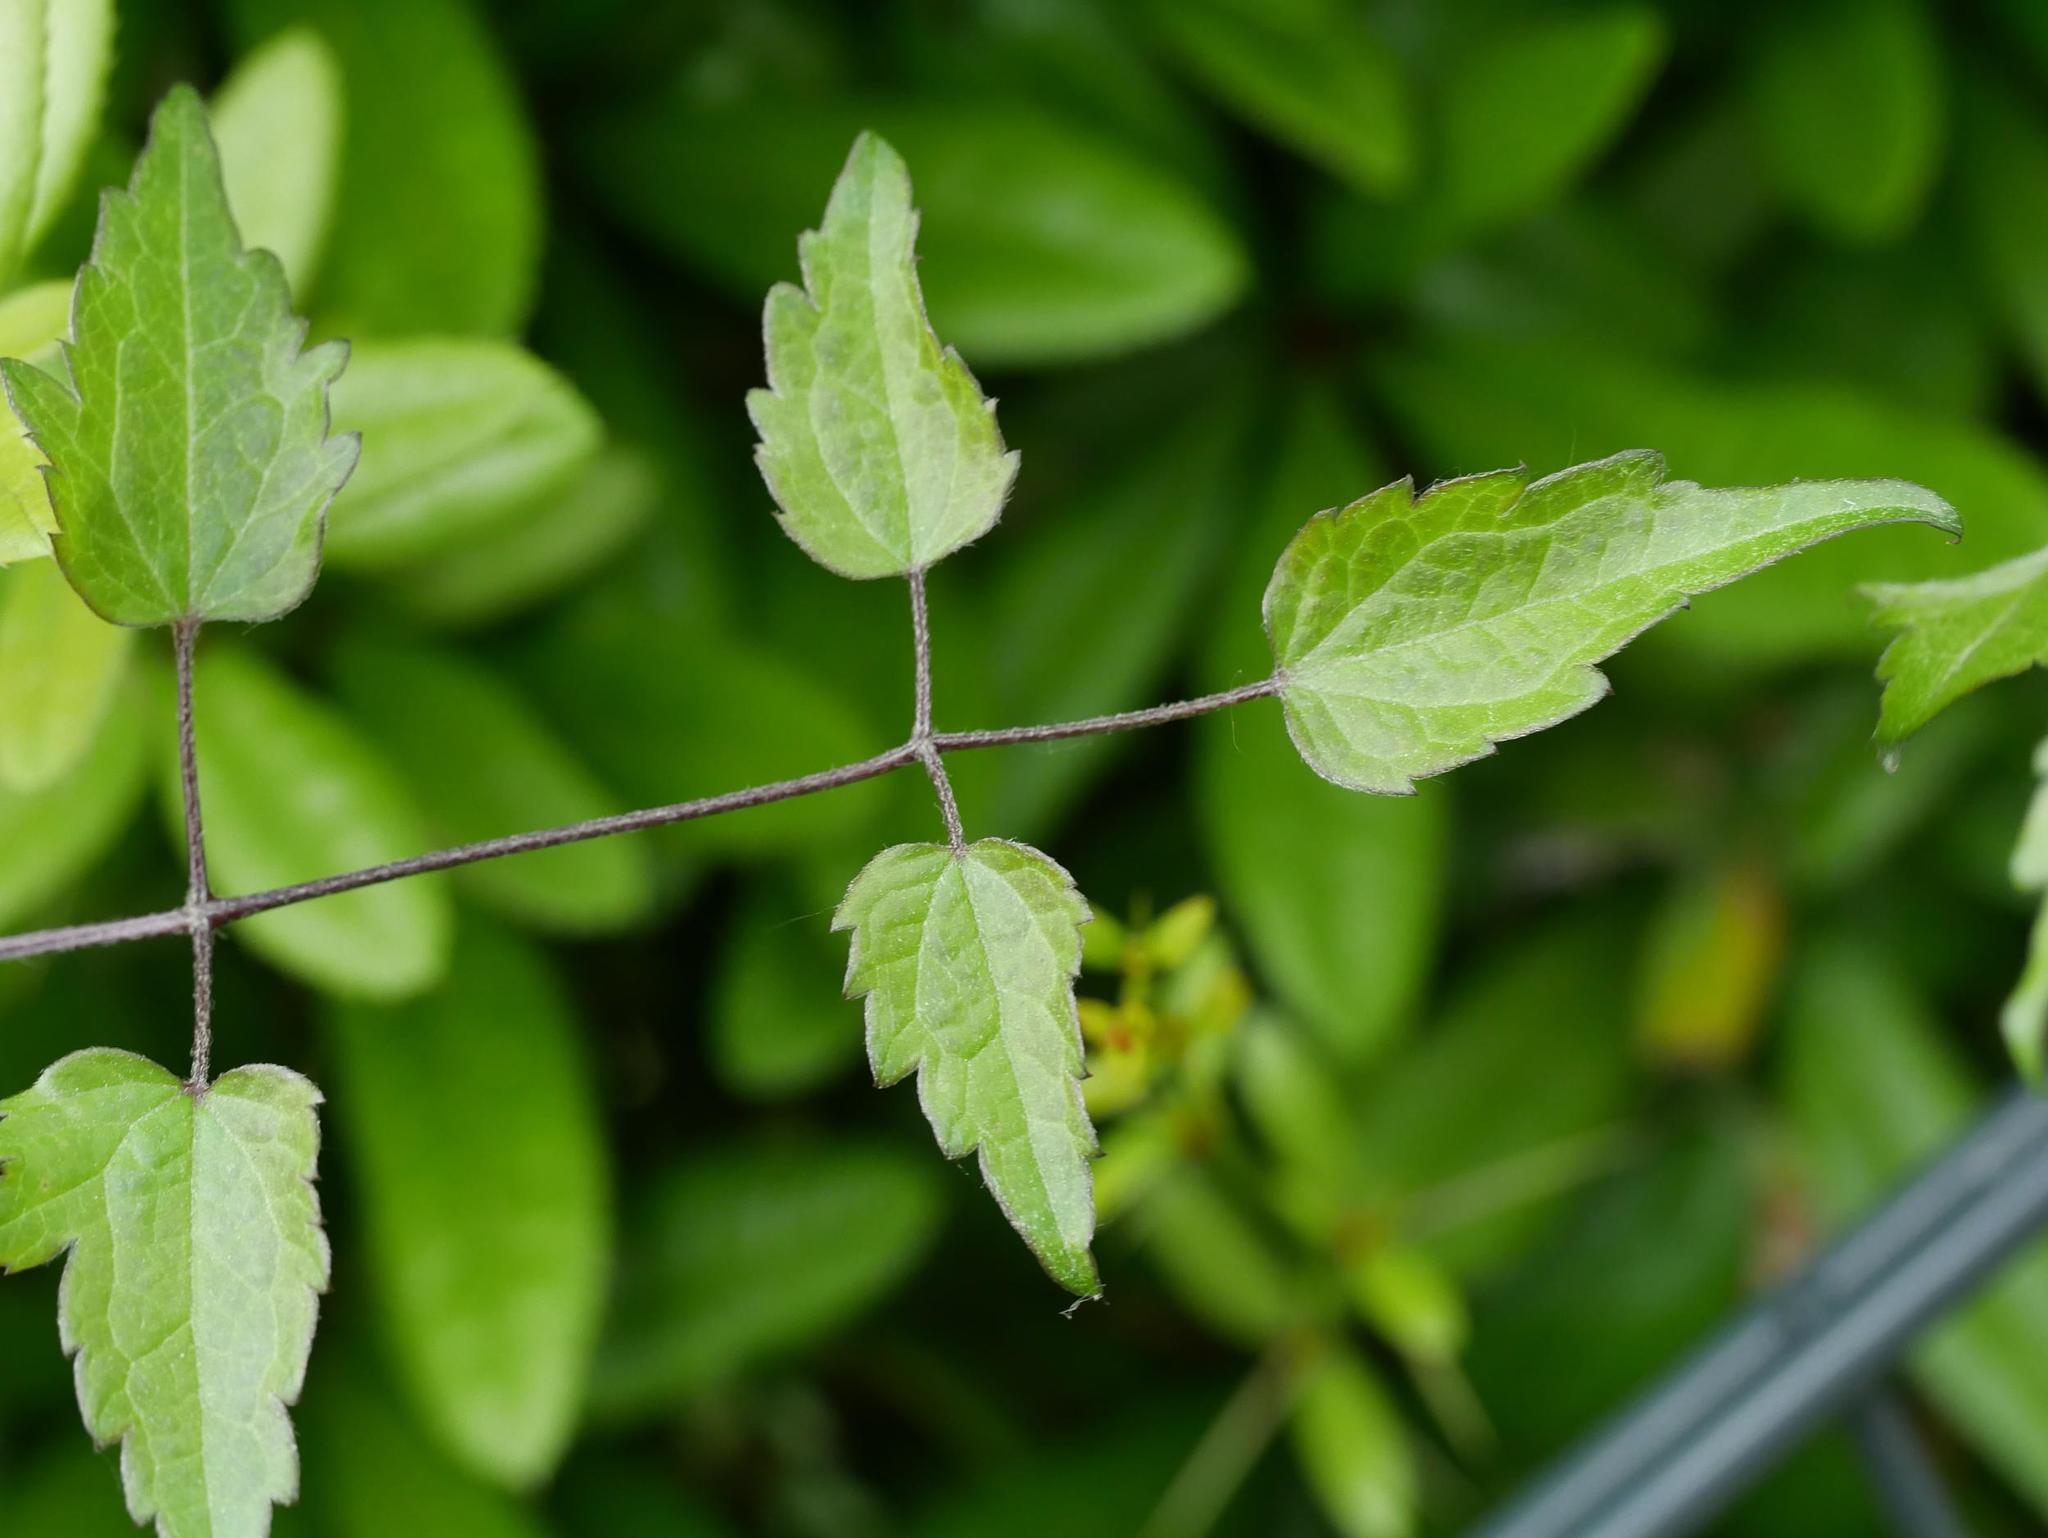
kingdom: Plantae
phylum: Tracheophyta
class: Magnoliopsida
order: Ranunculales
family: Ranunculaceae
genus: Clematis
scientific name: Clematis vitalba
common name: Evergreen clematis
